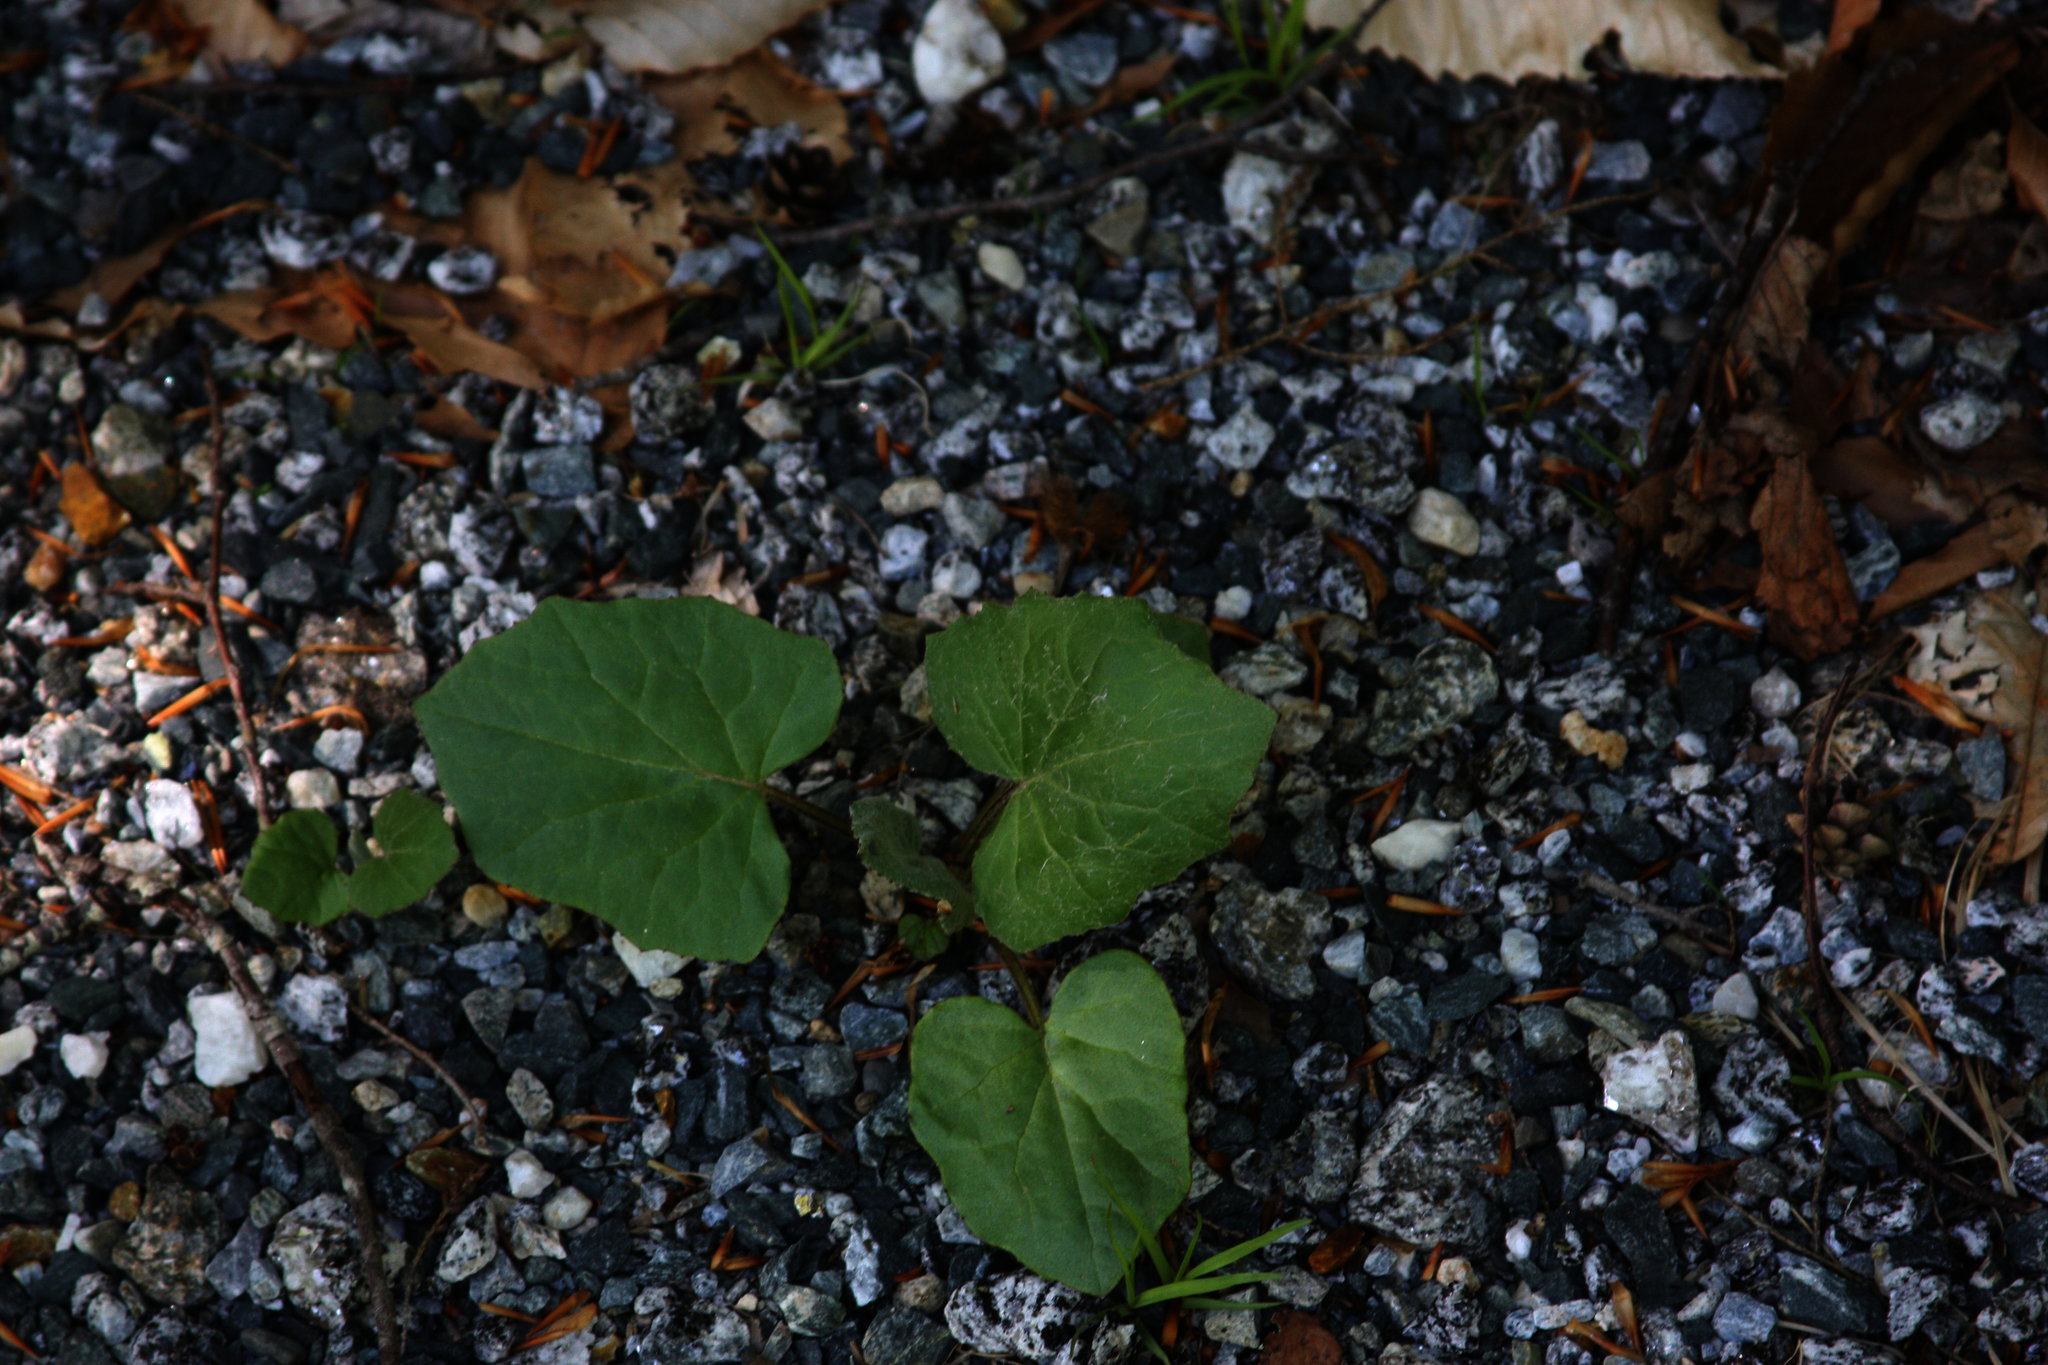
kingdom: Plantae
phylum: Tracheophyta
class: Magnoliopsida
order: Asterales
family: Asteraceae
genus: Tussilago
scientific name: Tussilago farfara
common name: Coltsfoot
